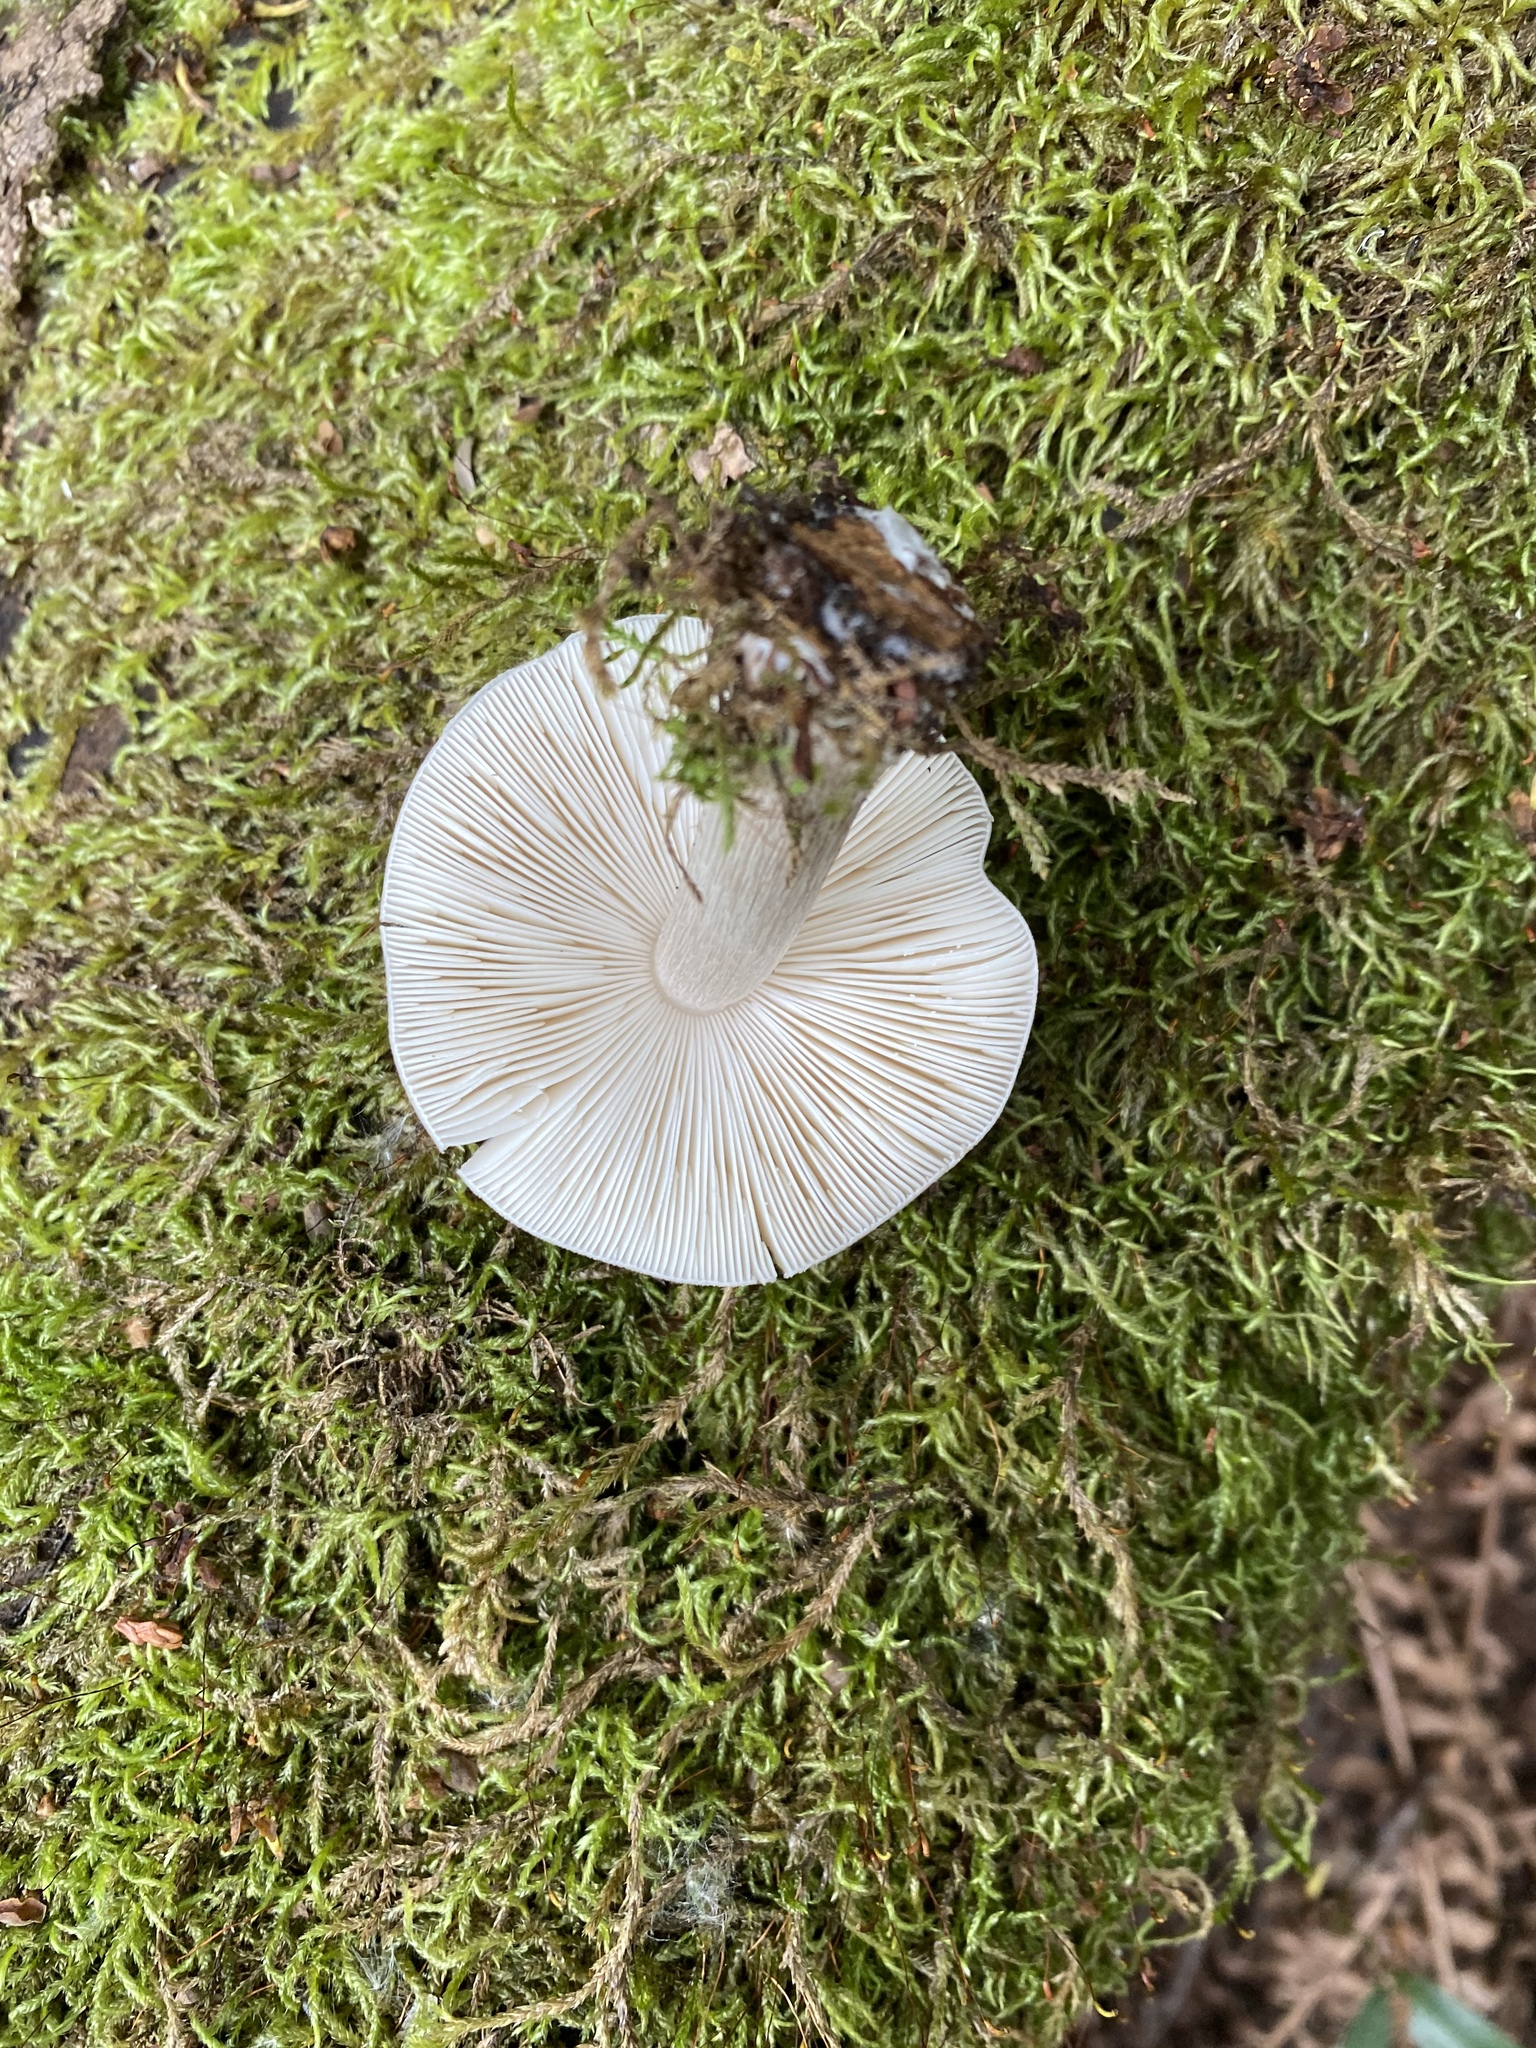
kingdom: Fungi
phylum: Basidiomycota
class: Agaricomycetes
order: Agaricales
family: Pluteaceae
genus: Pluteus
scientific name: Pluteus cervinus
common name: Deer shield
